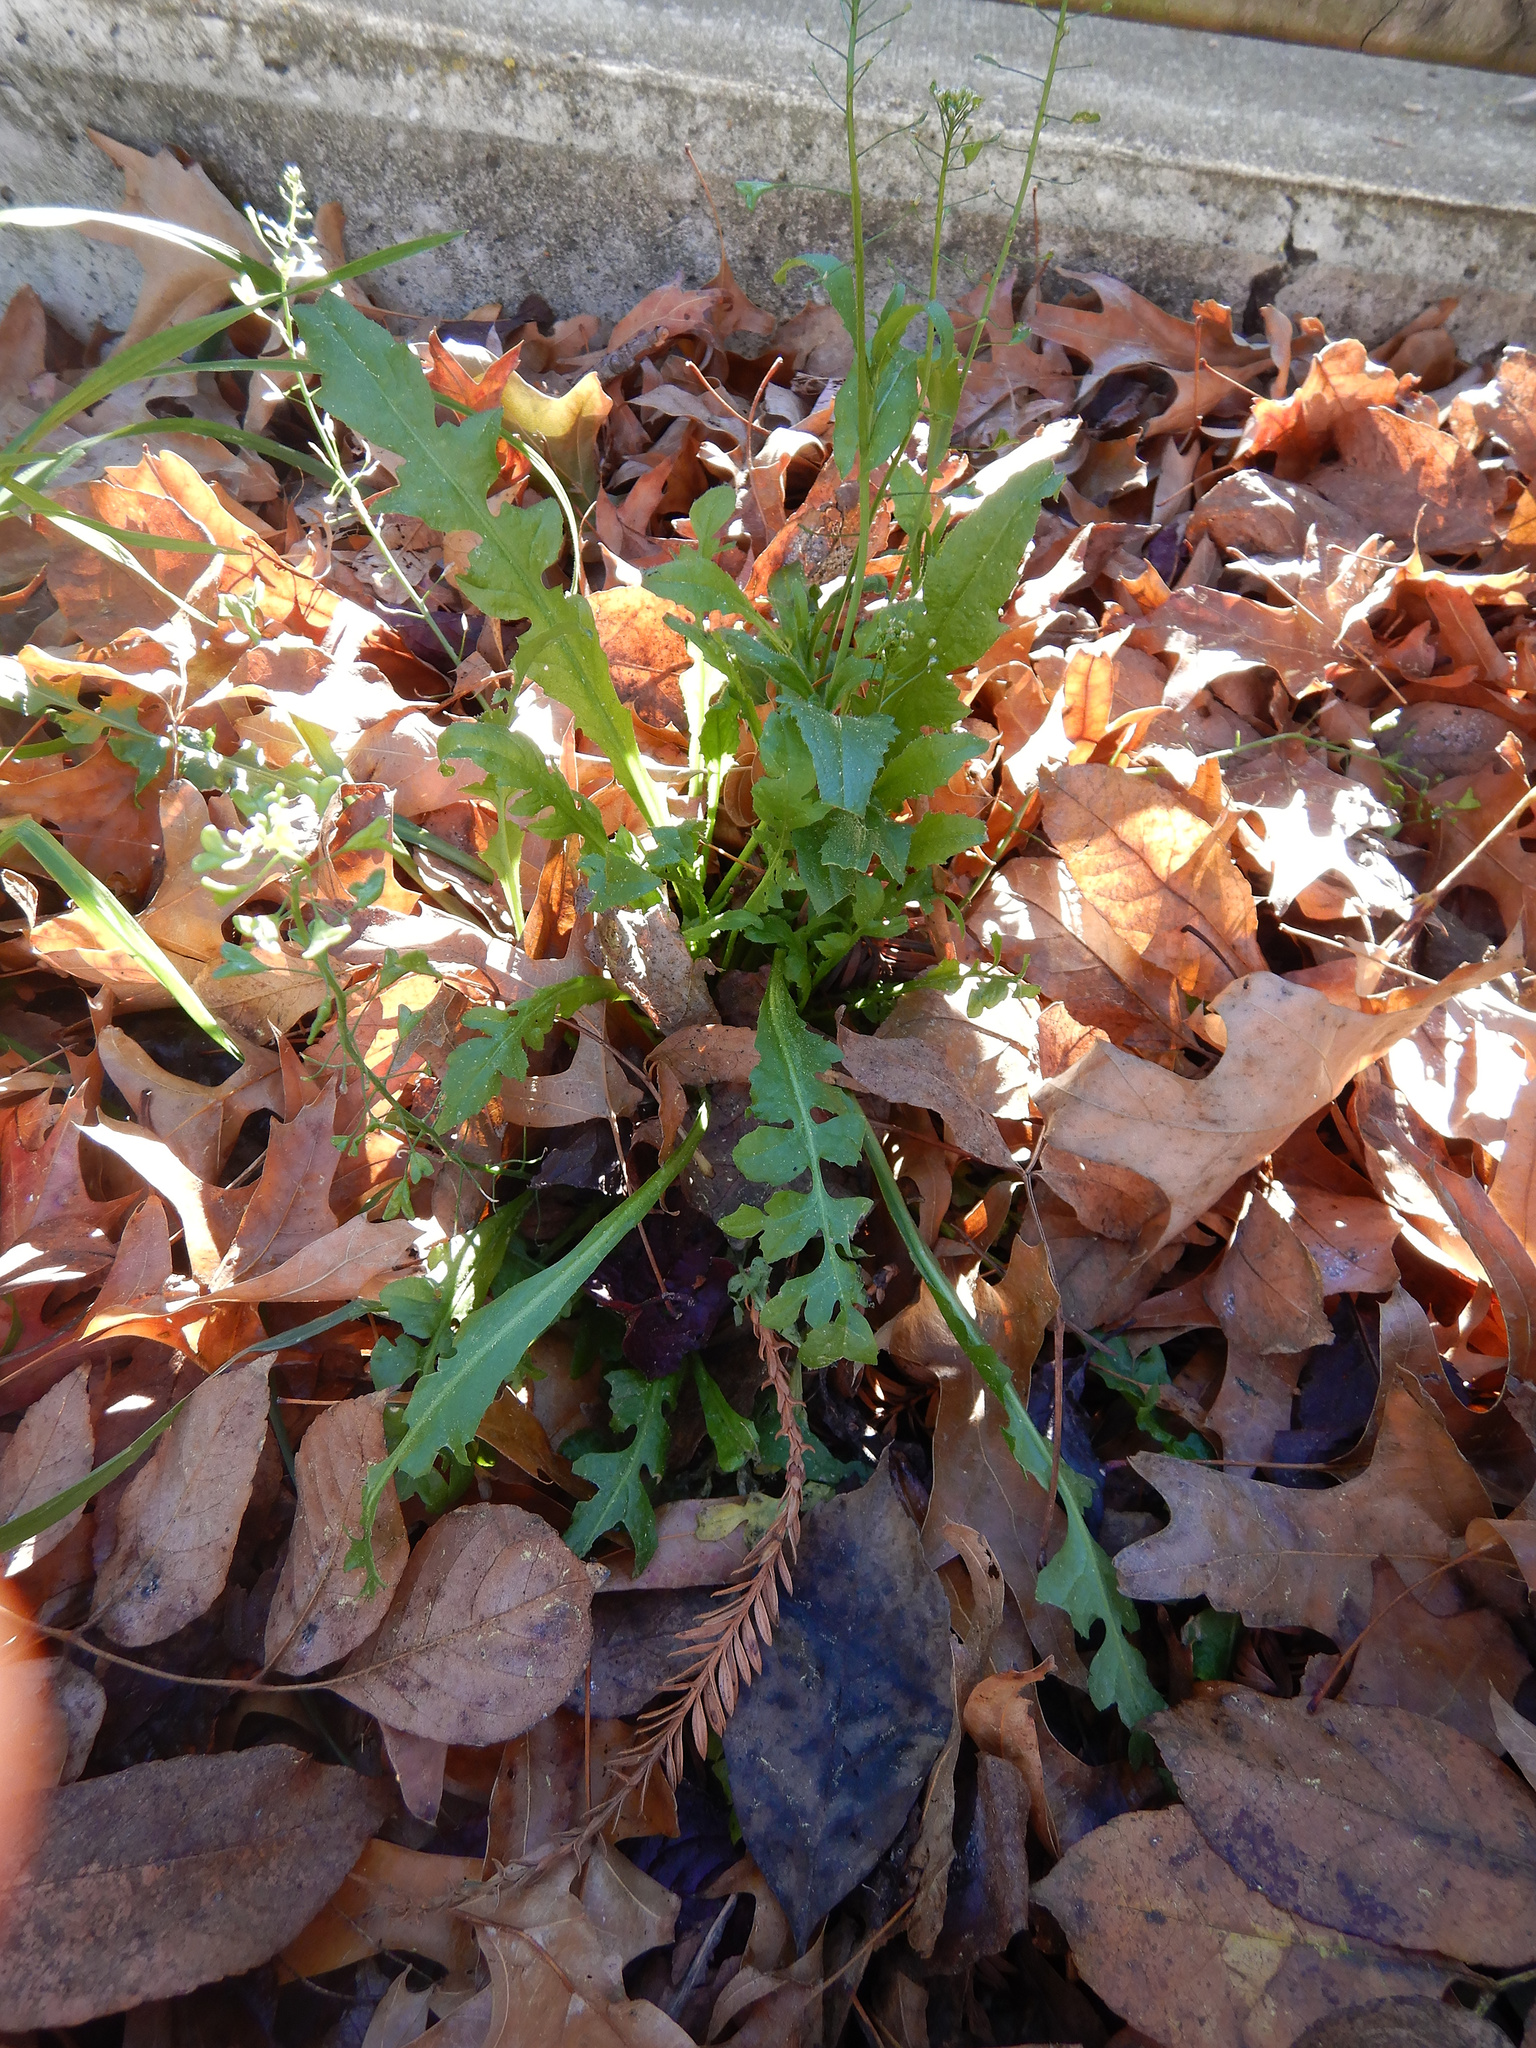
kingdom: Plantae
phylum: Tracheophyta
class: Magnoliopsida
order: Brassicales
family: Brassicaceae
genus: Capsella
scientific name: Capsella bursa-pastoris
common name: Shepherd's purse
